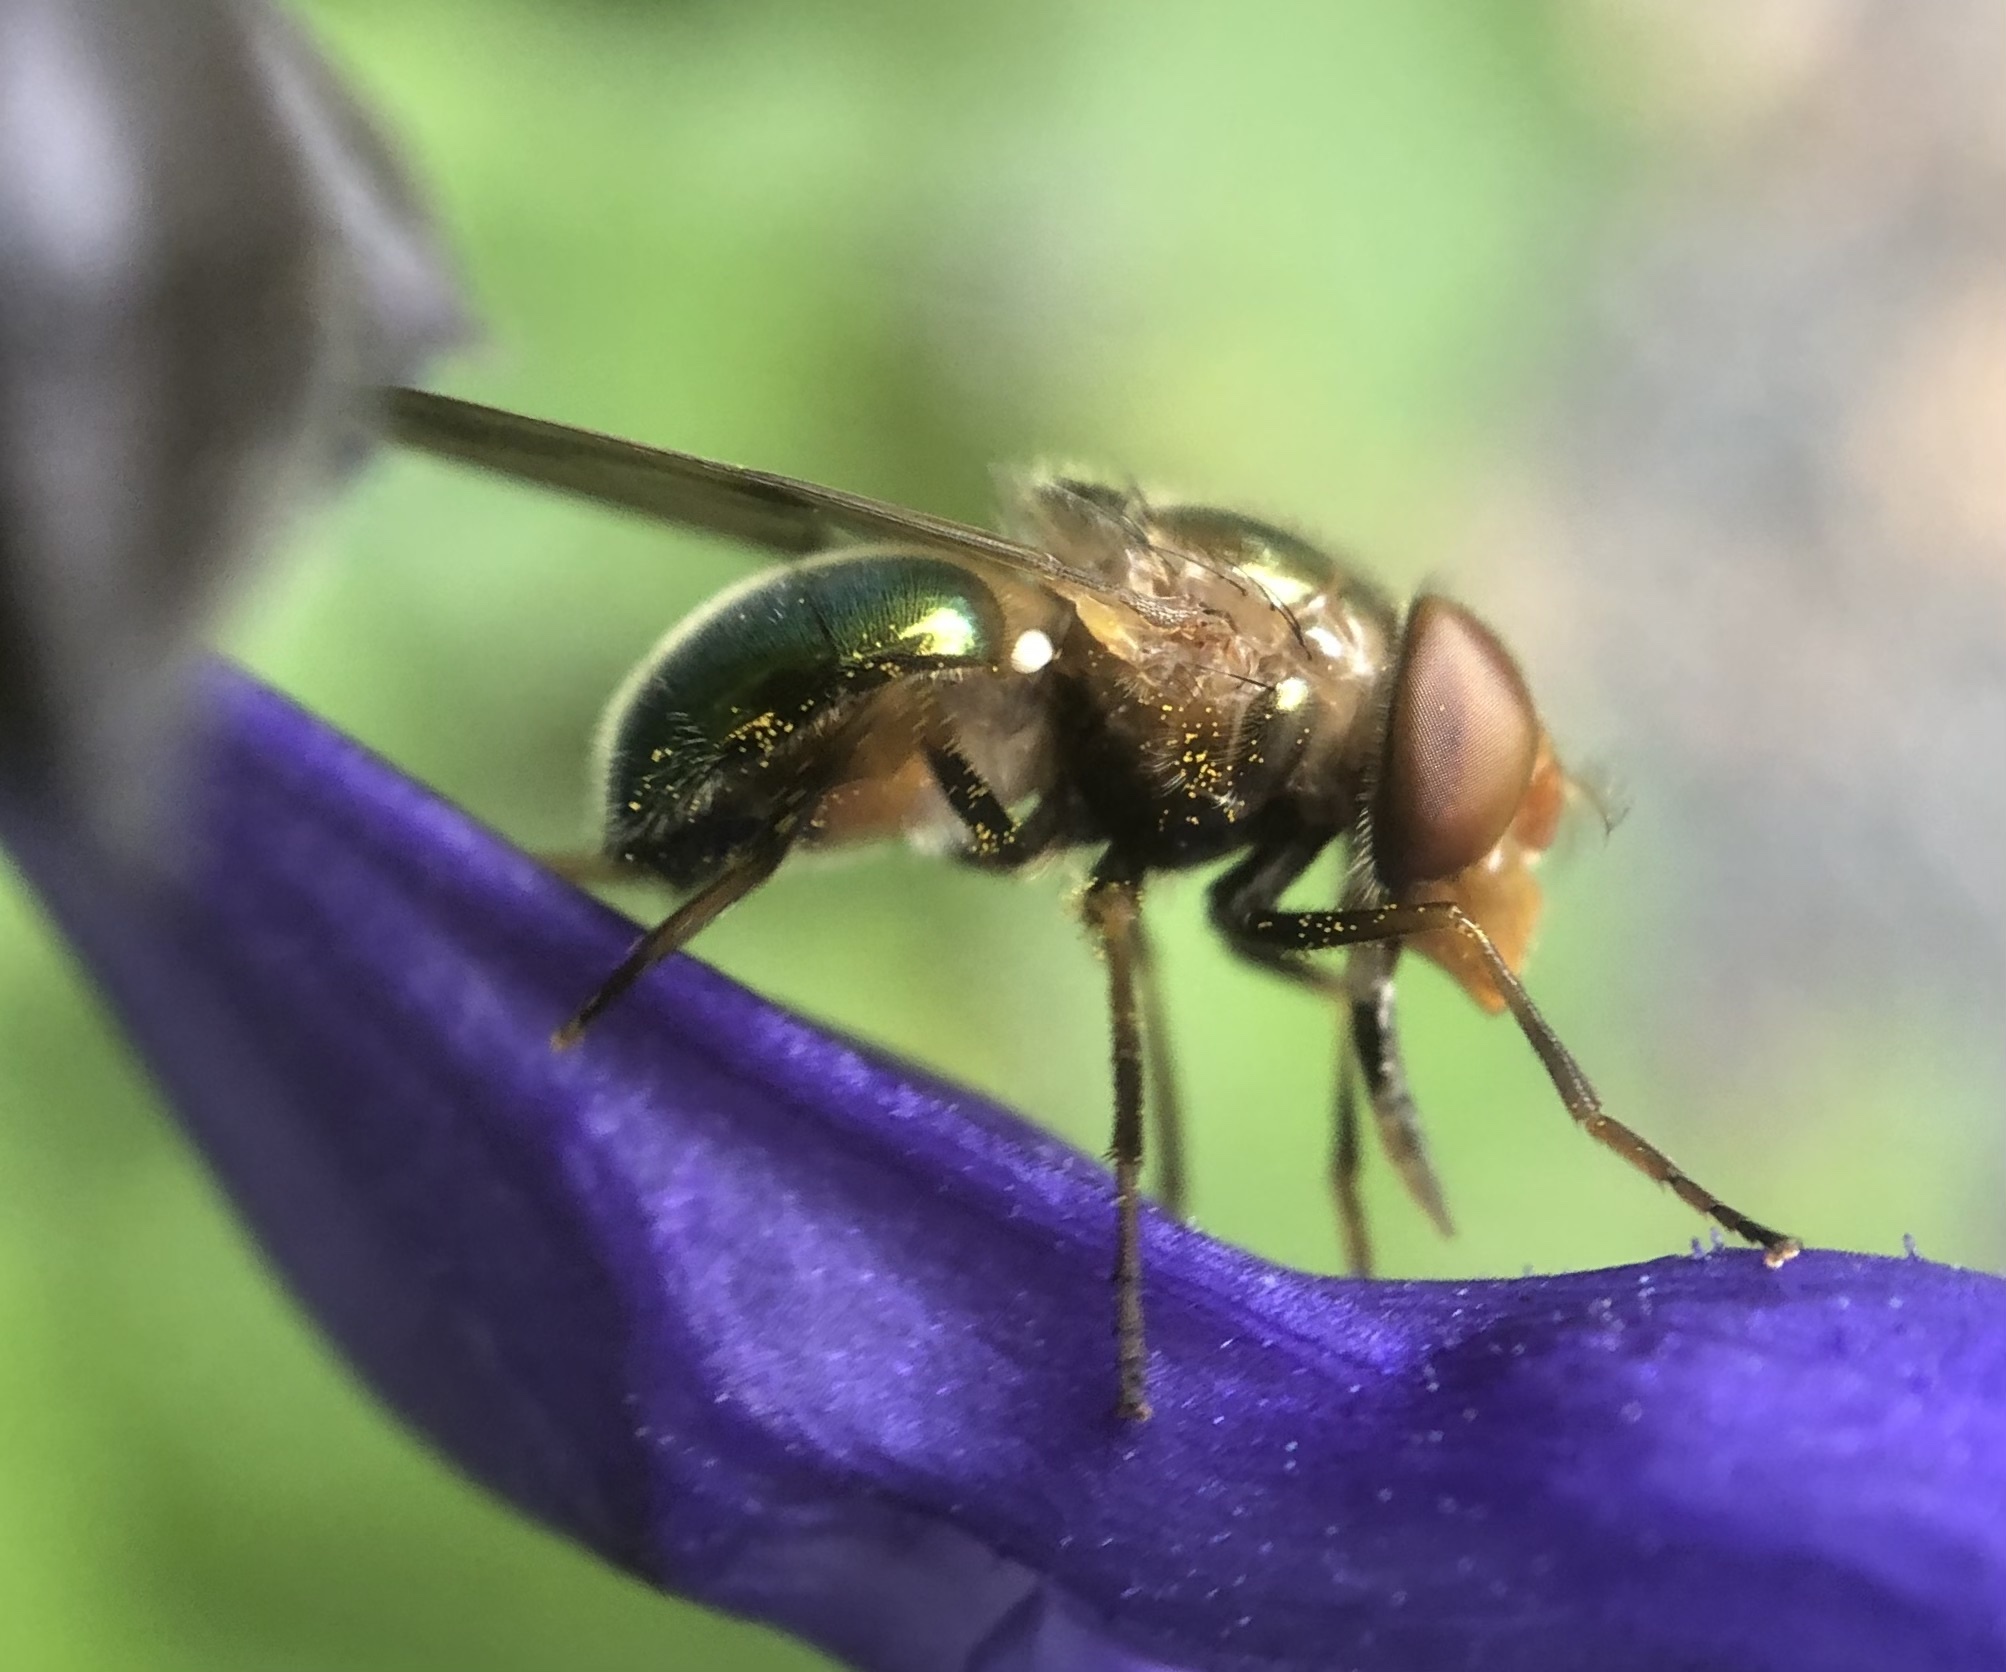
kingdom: Animalia
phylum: Arthropoda
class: Insecta
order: Diptera
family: Syrphidae
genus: Copestylum
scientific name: Copestylum vesicularium
